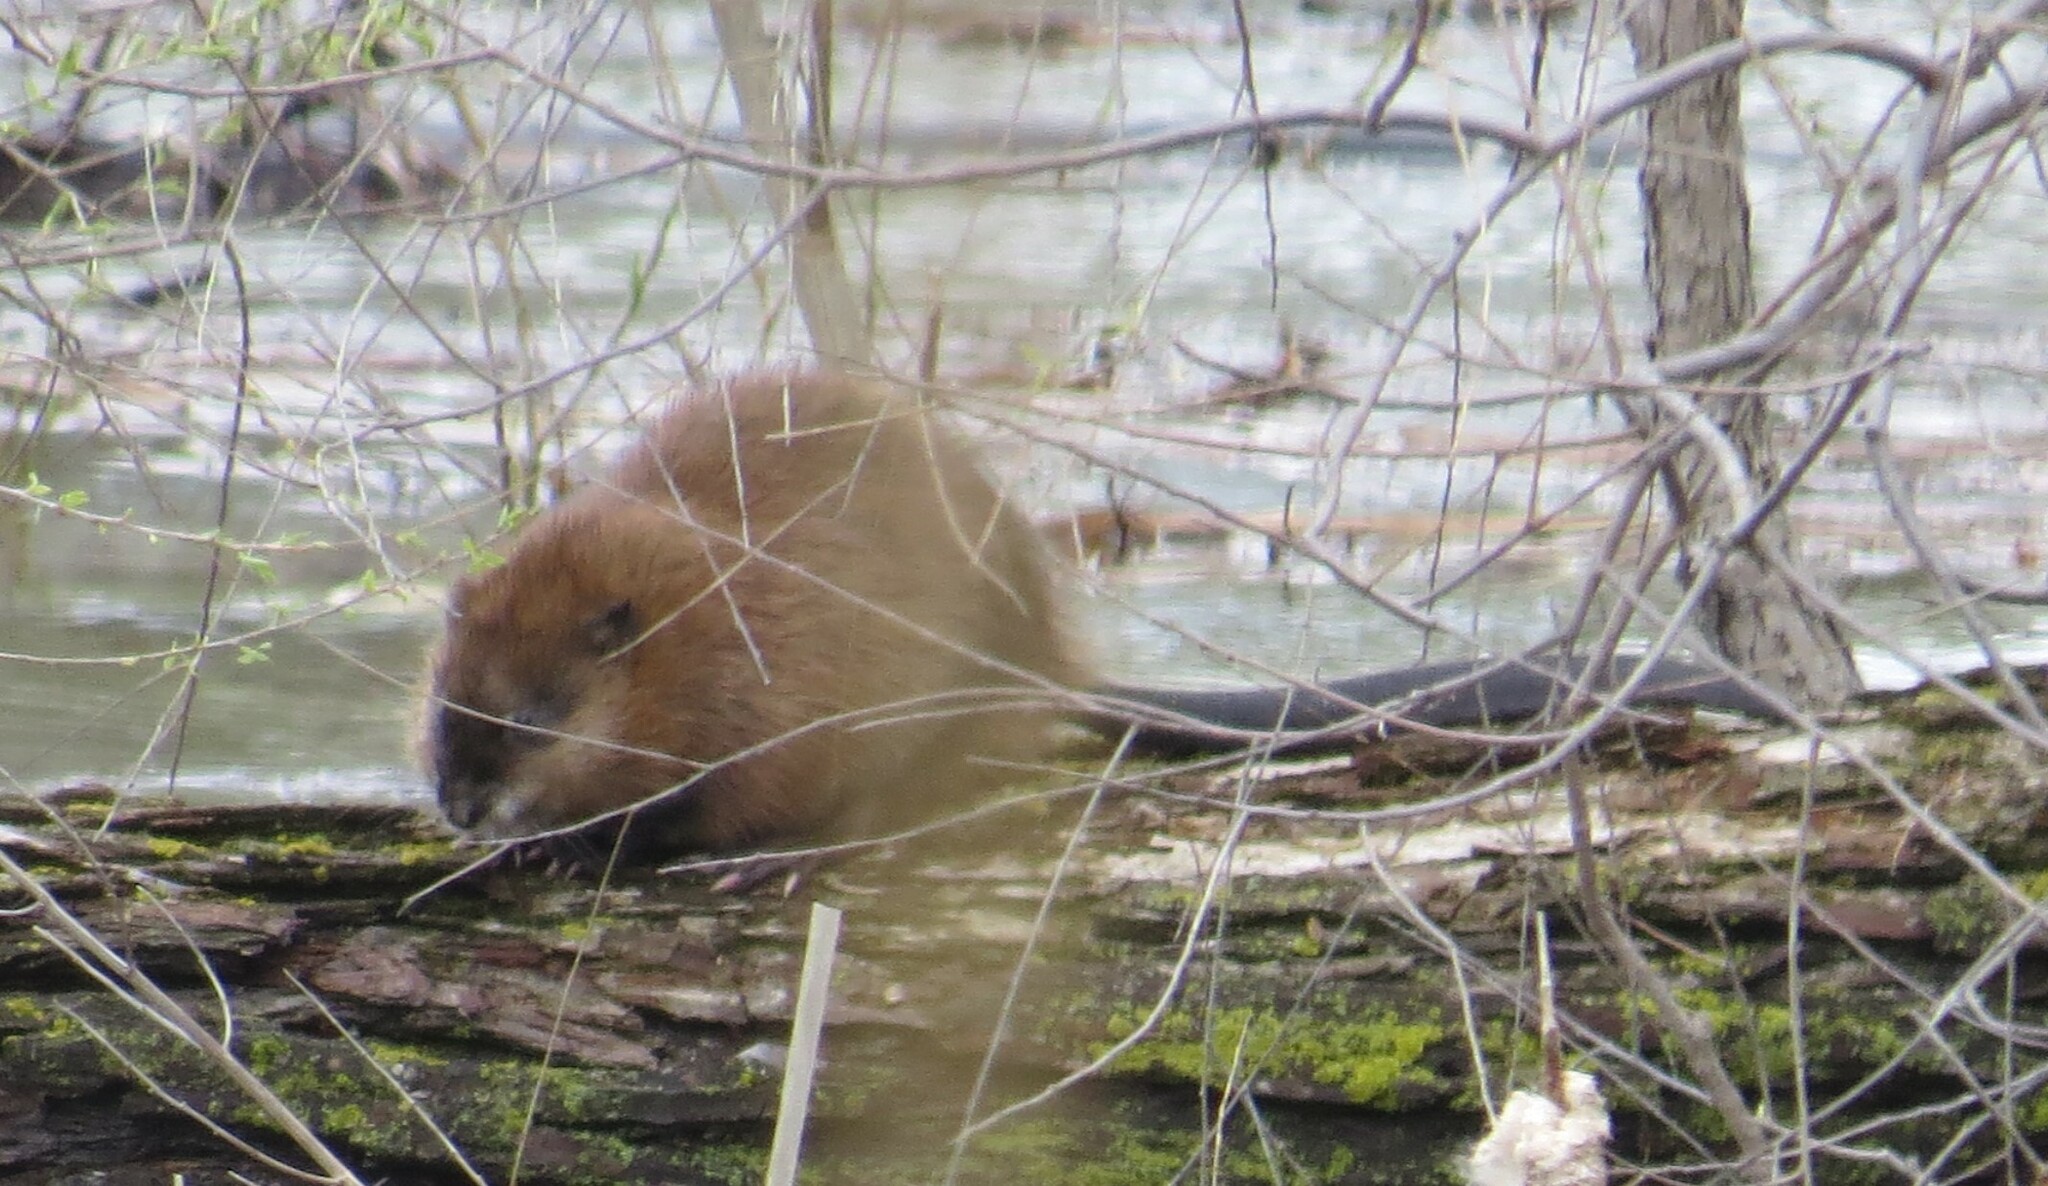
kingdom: Animalia
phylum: Chordata
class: Mammalia
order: Rodentia
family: Cricetidae
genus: Ondatra
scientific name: Ondatra zibethicus
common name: Muskrat
